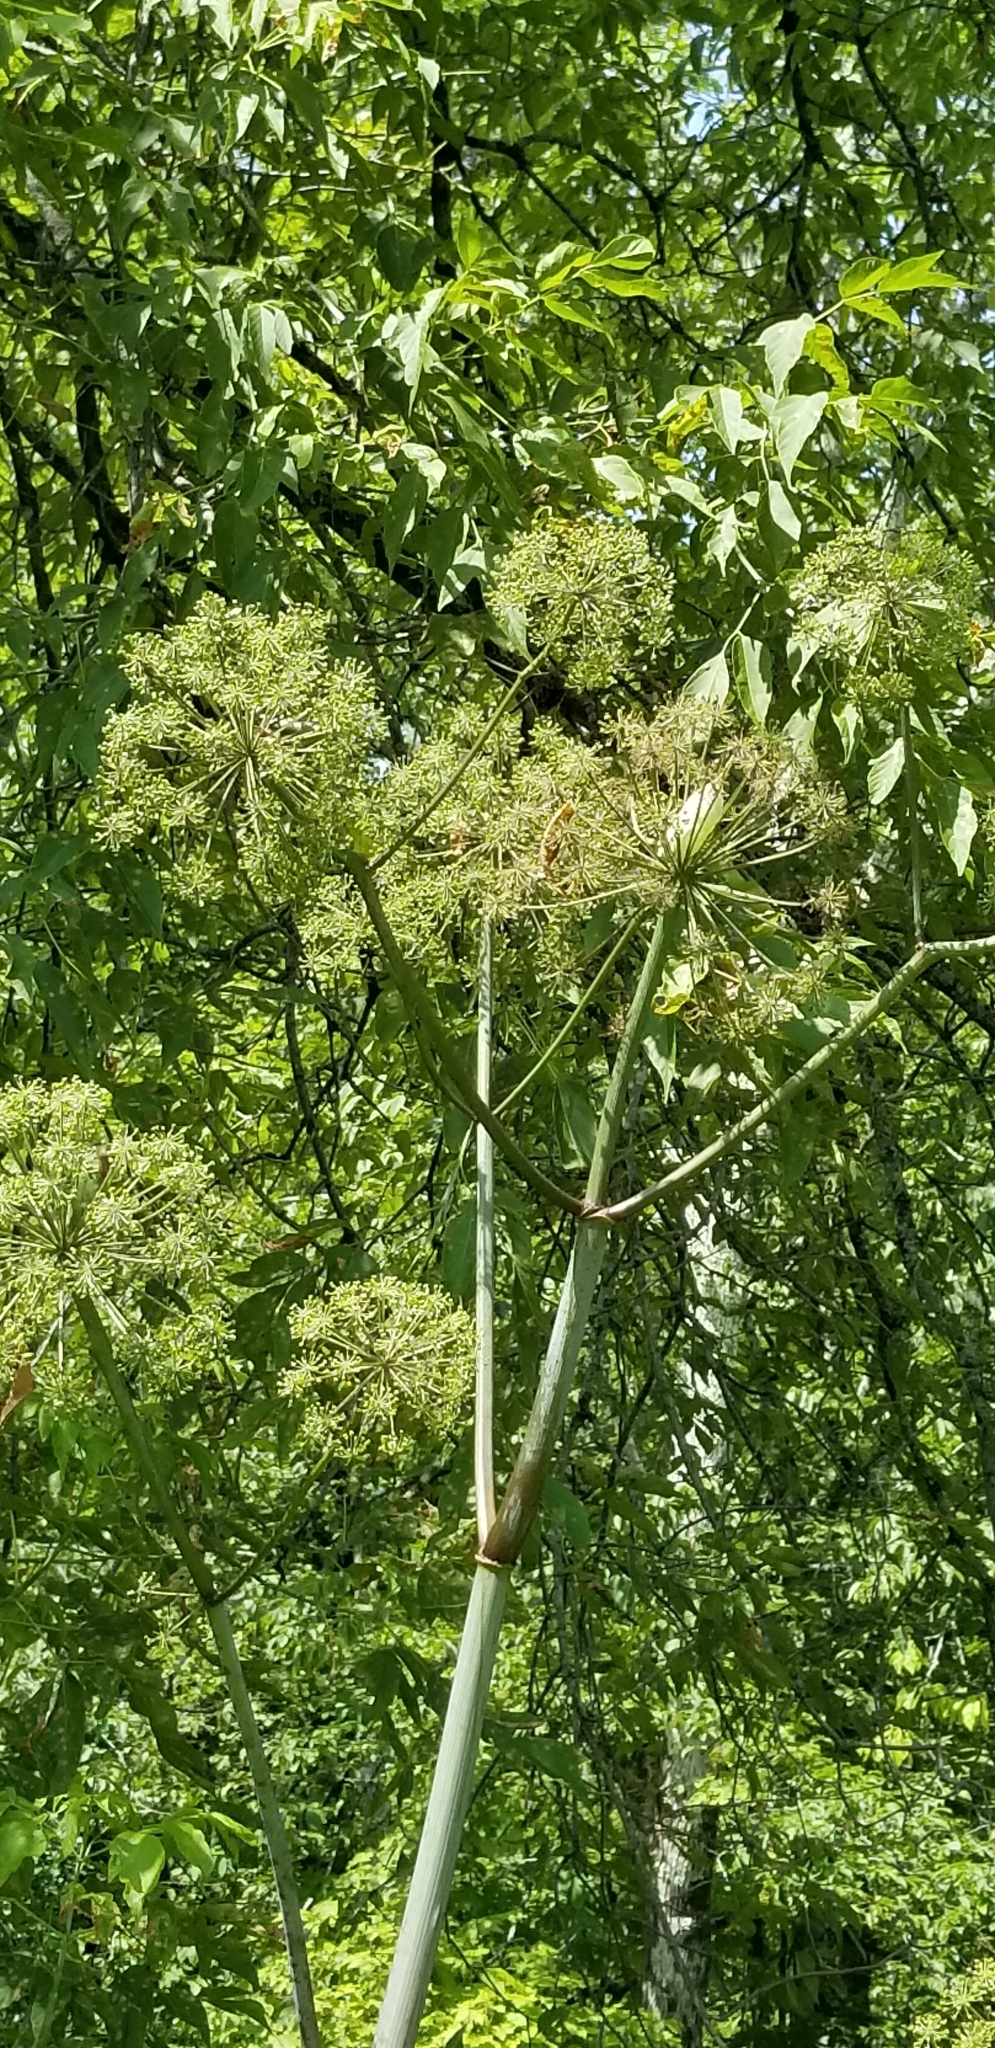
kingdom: Plantae
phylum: Tracheophyta
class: Magnoliopsida
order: Apiales
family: Apiaceae
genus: Angelica
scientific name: Angelica atropurpurea
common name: Great angelica
